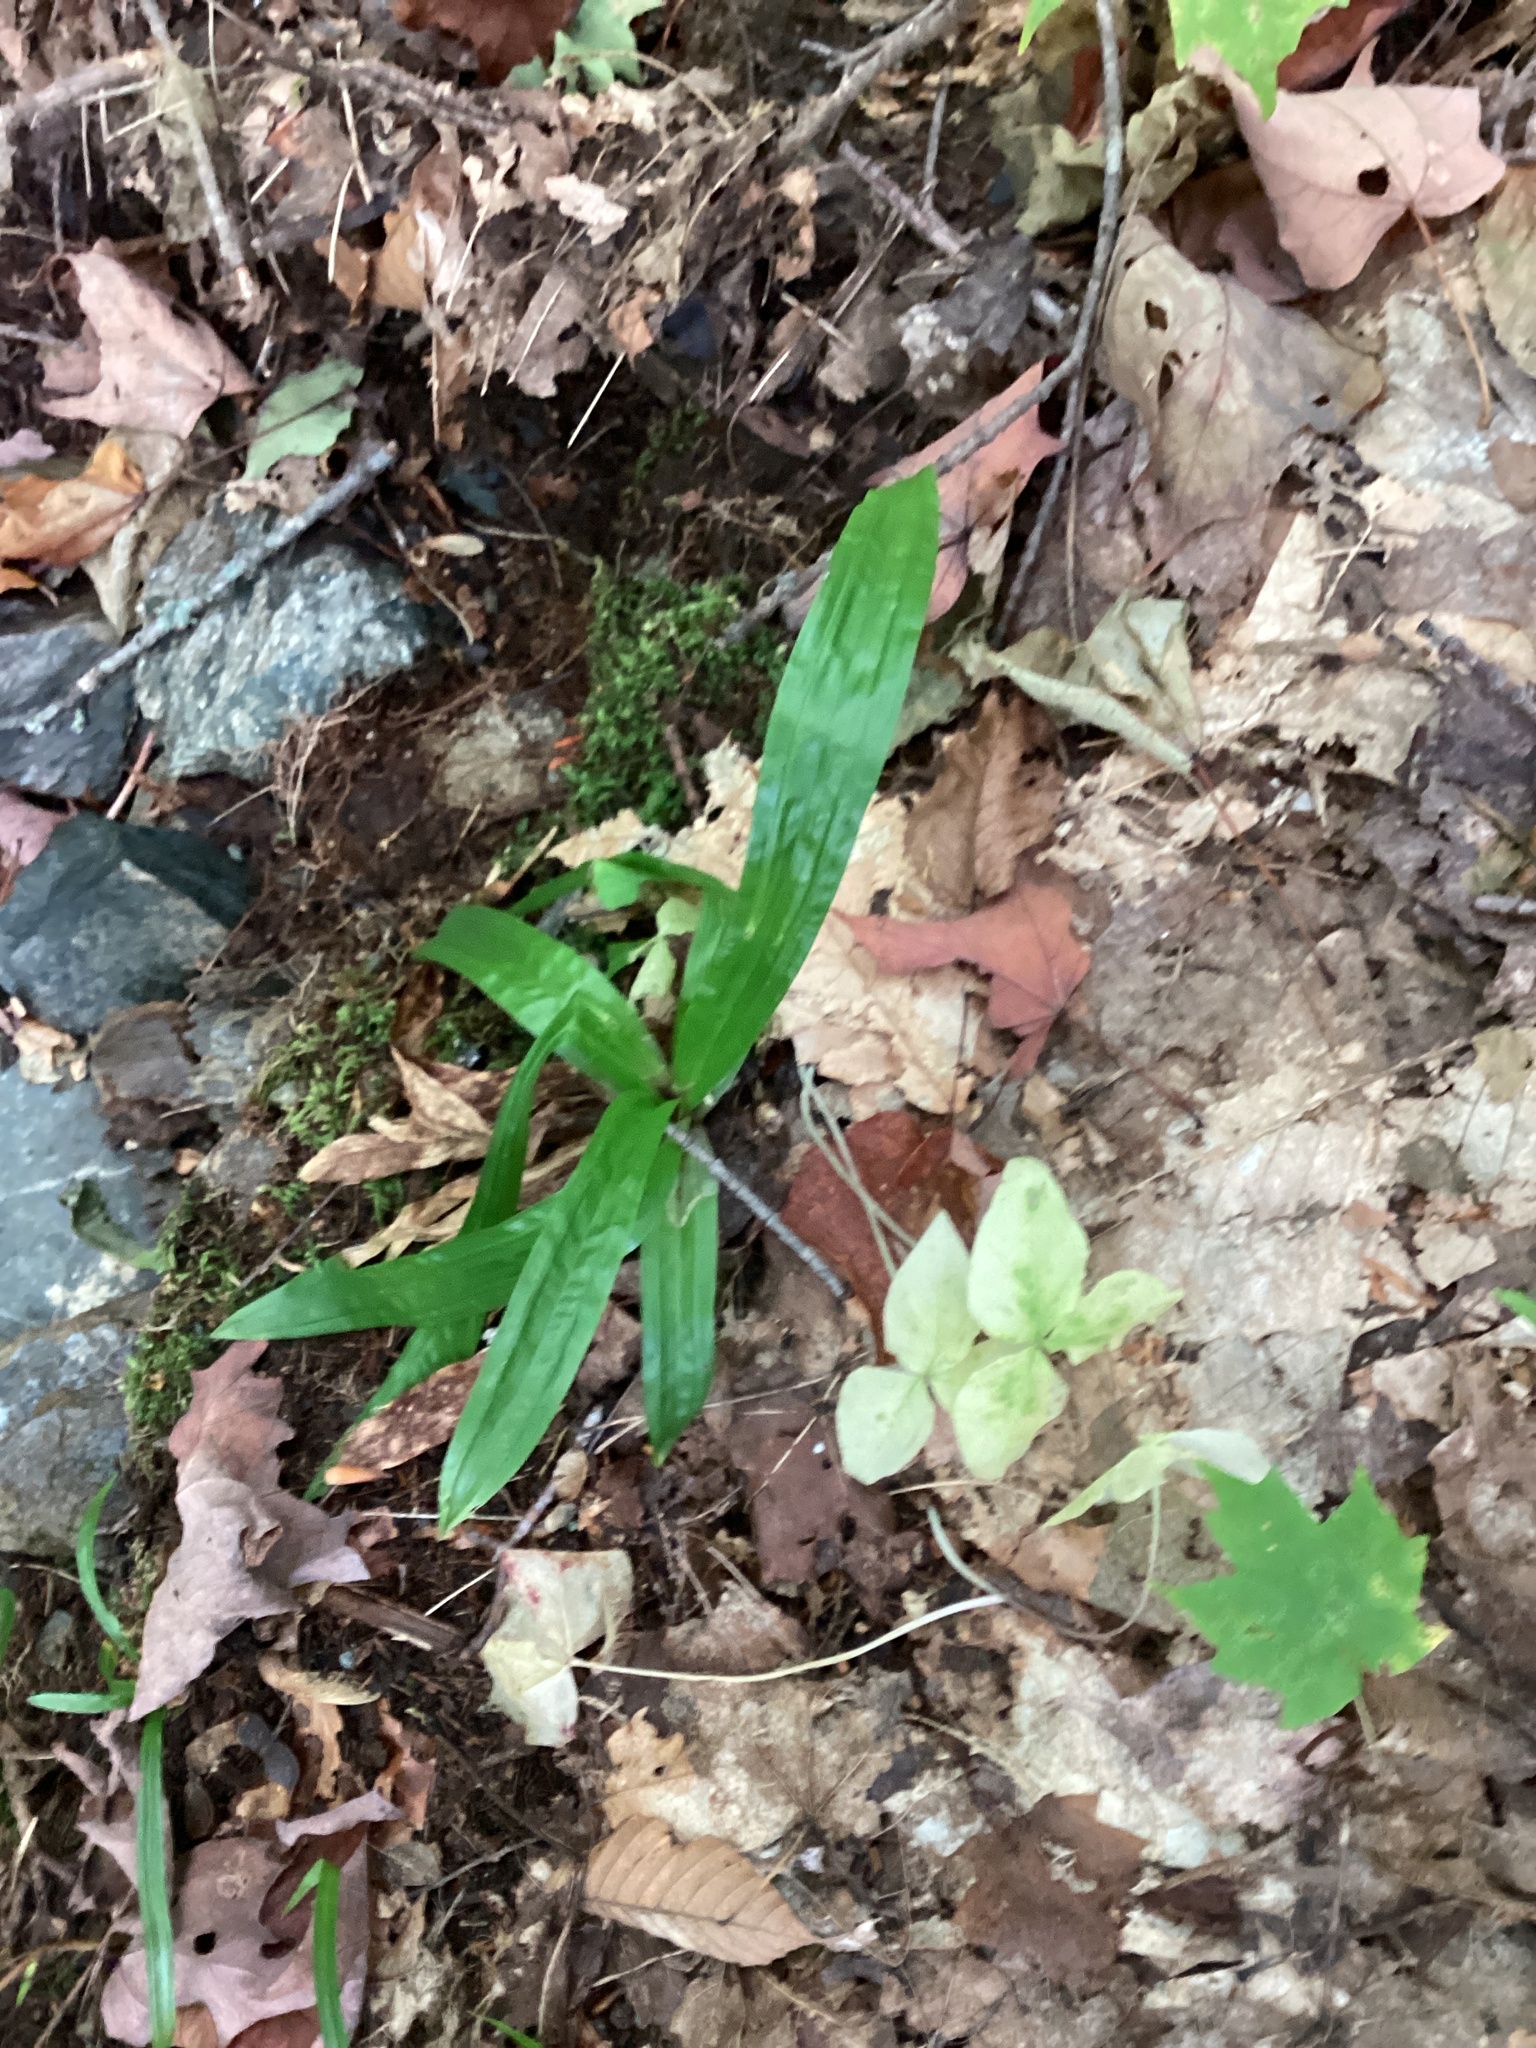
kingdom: Plantae
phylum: Tracheophyta
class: Liliopsida
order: Poales
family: Cyperaceae
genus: Carex
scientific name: Carex plantaginea
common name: Plantain-leaved sedge
